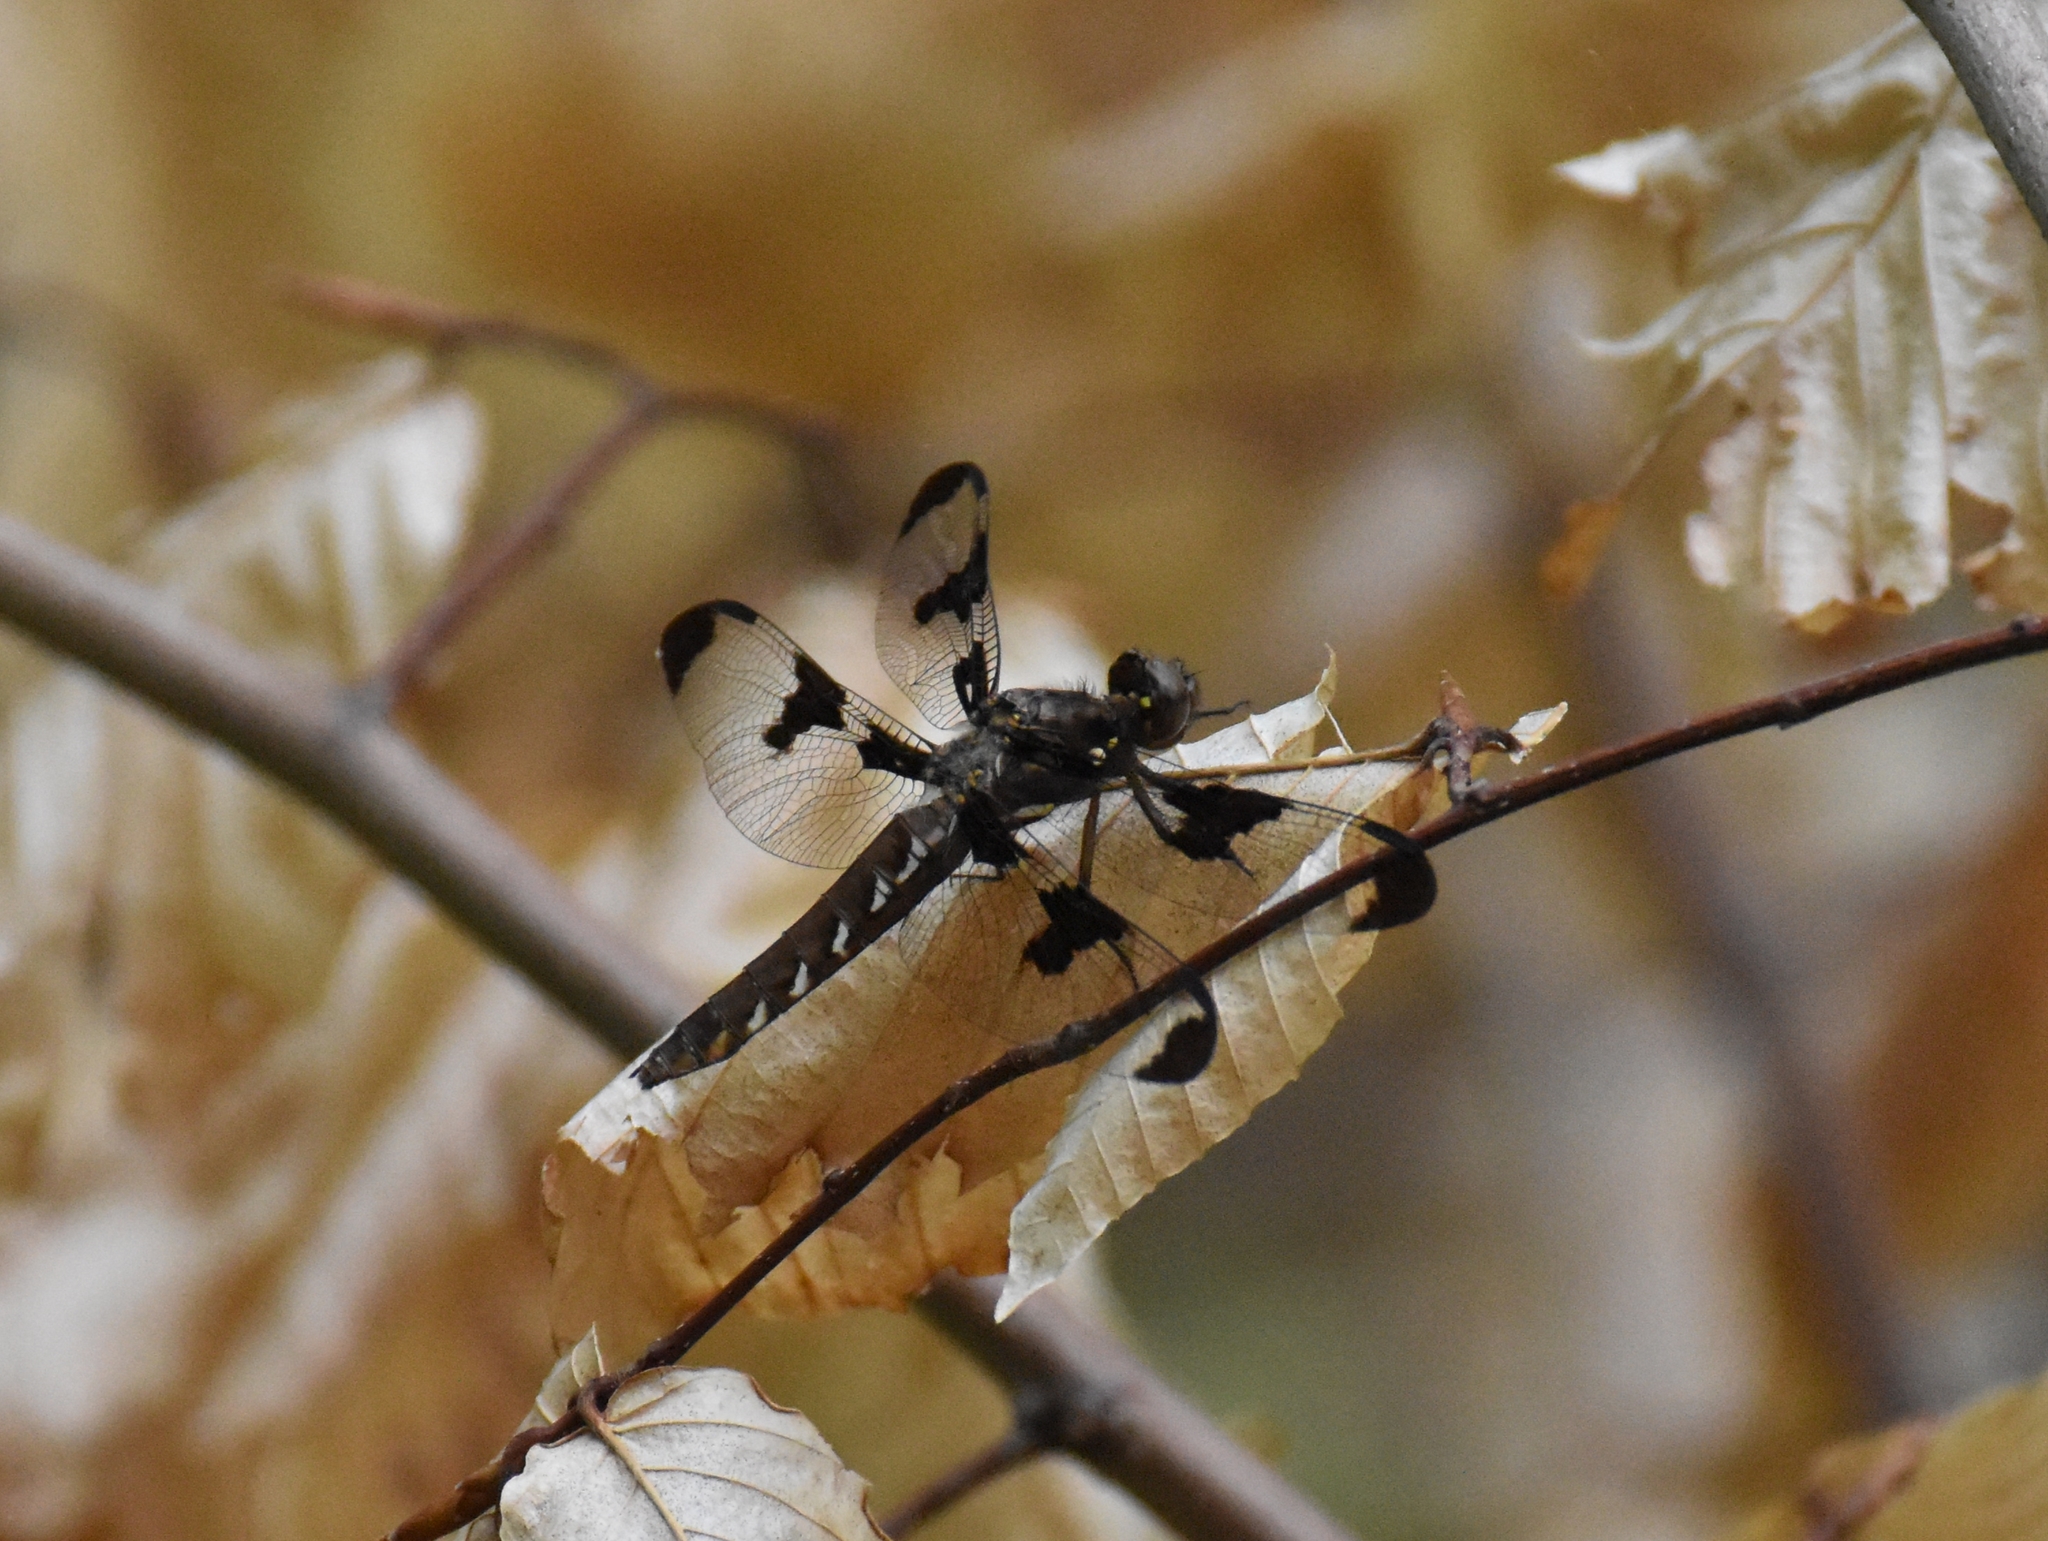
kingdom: Animalia
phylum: Arthropoda
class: Insecta
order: Odonata
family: Libellulidae
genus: Plathemis
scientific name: Plathemis lydia
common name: Common whitetail
